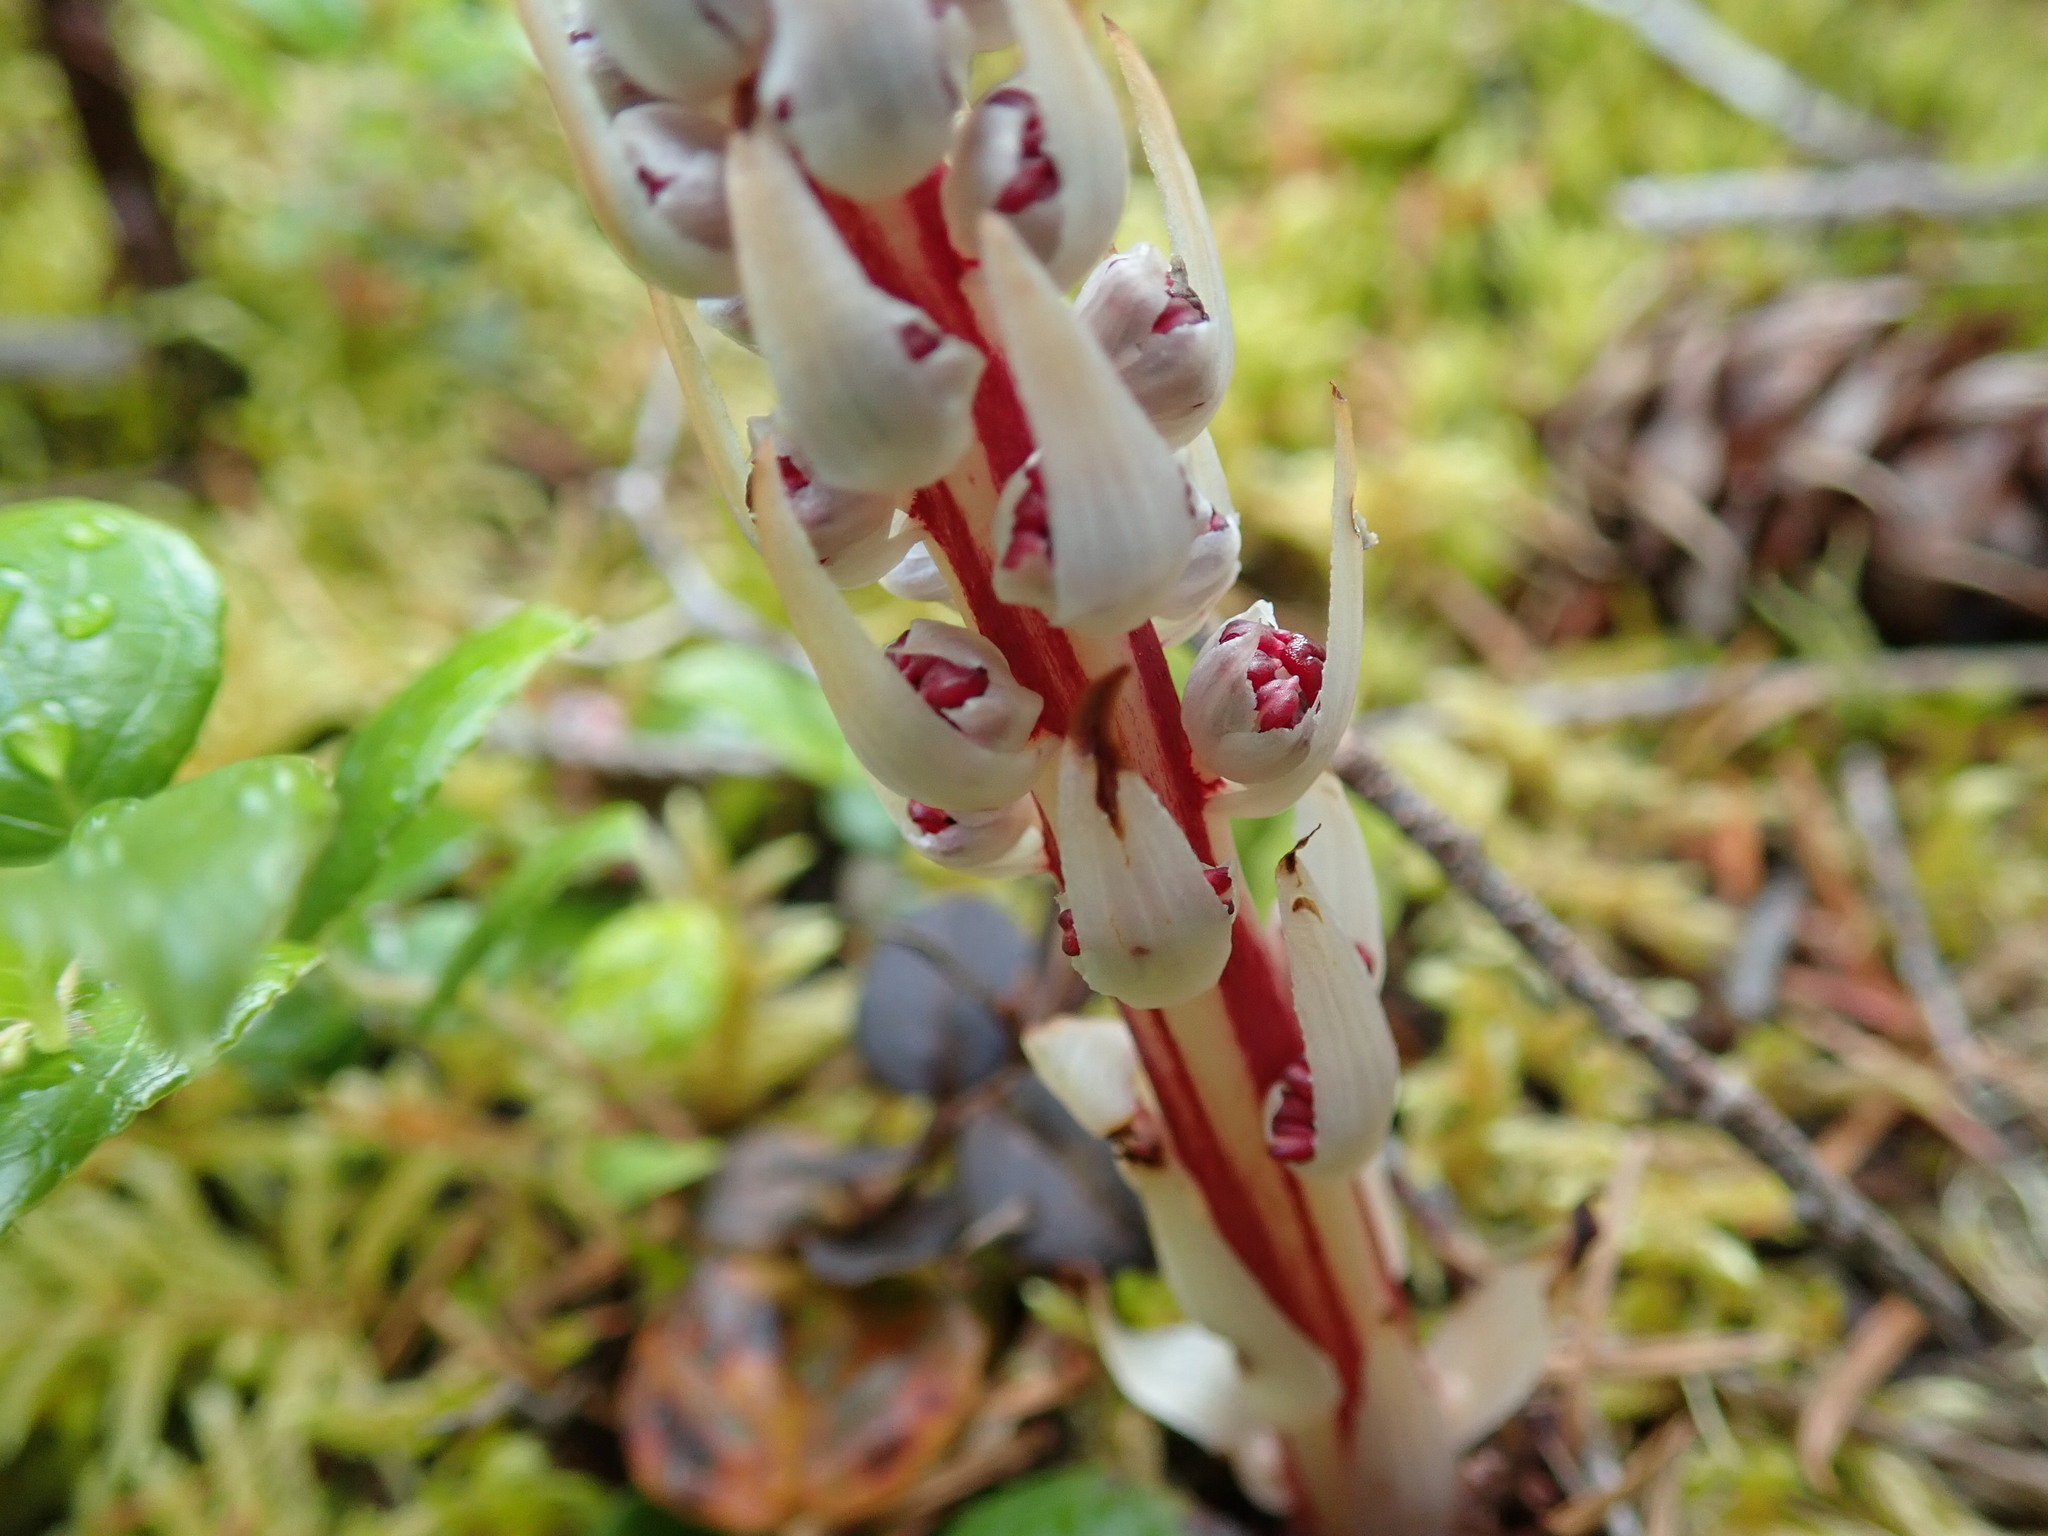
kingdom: Plantae
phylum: Tracheophyta
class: Magnoliopsida
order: Ericales
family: Ericaceae
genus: Allotropa
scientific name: Allotropa virgata
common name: Candy-striped allotropa
